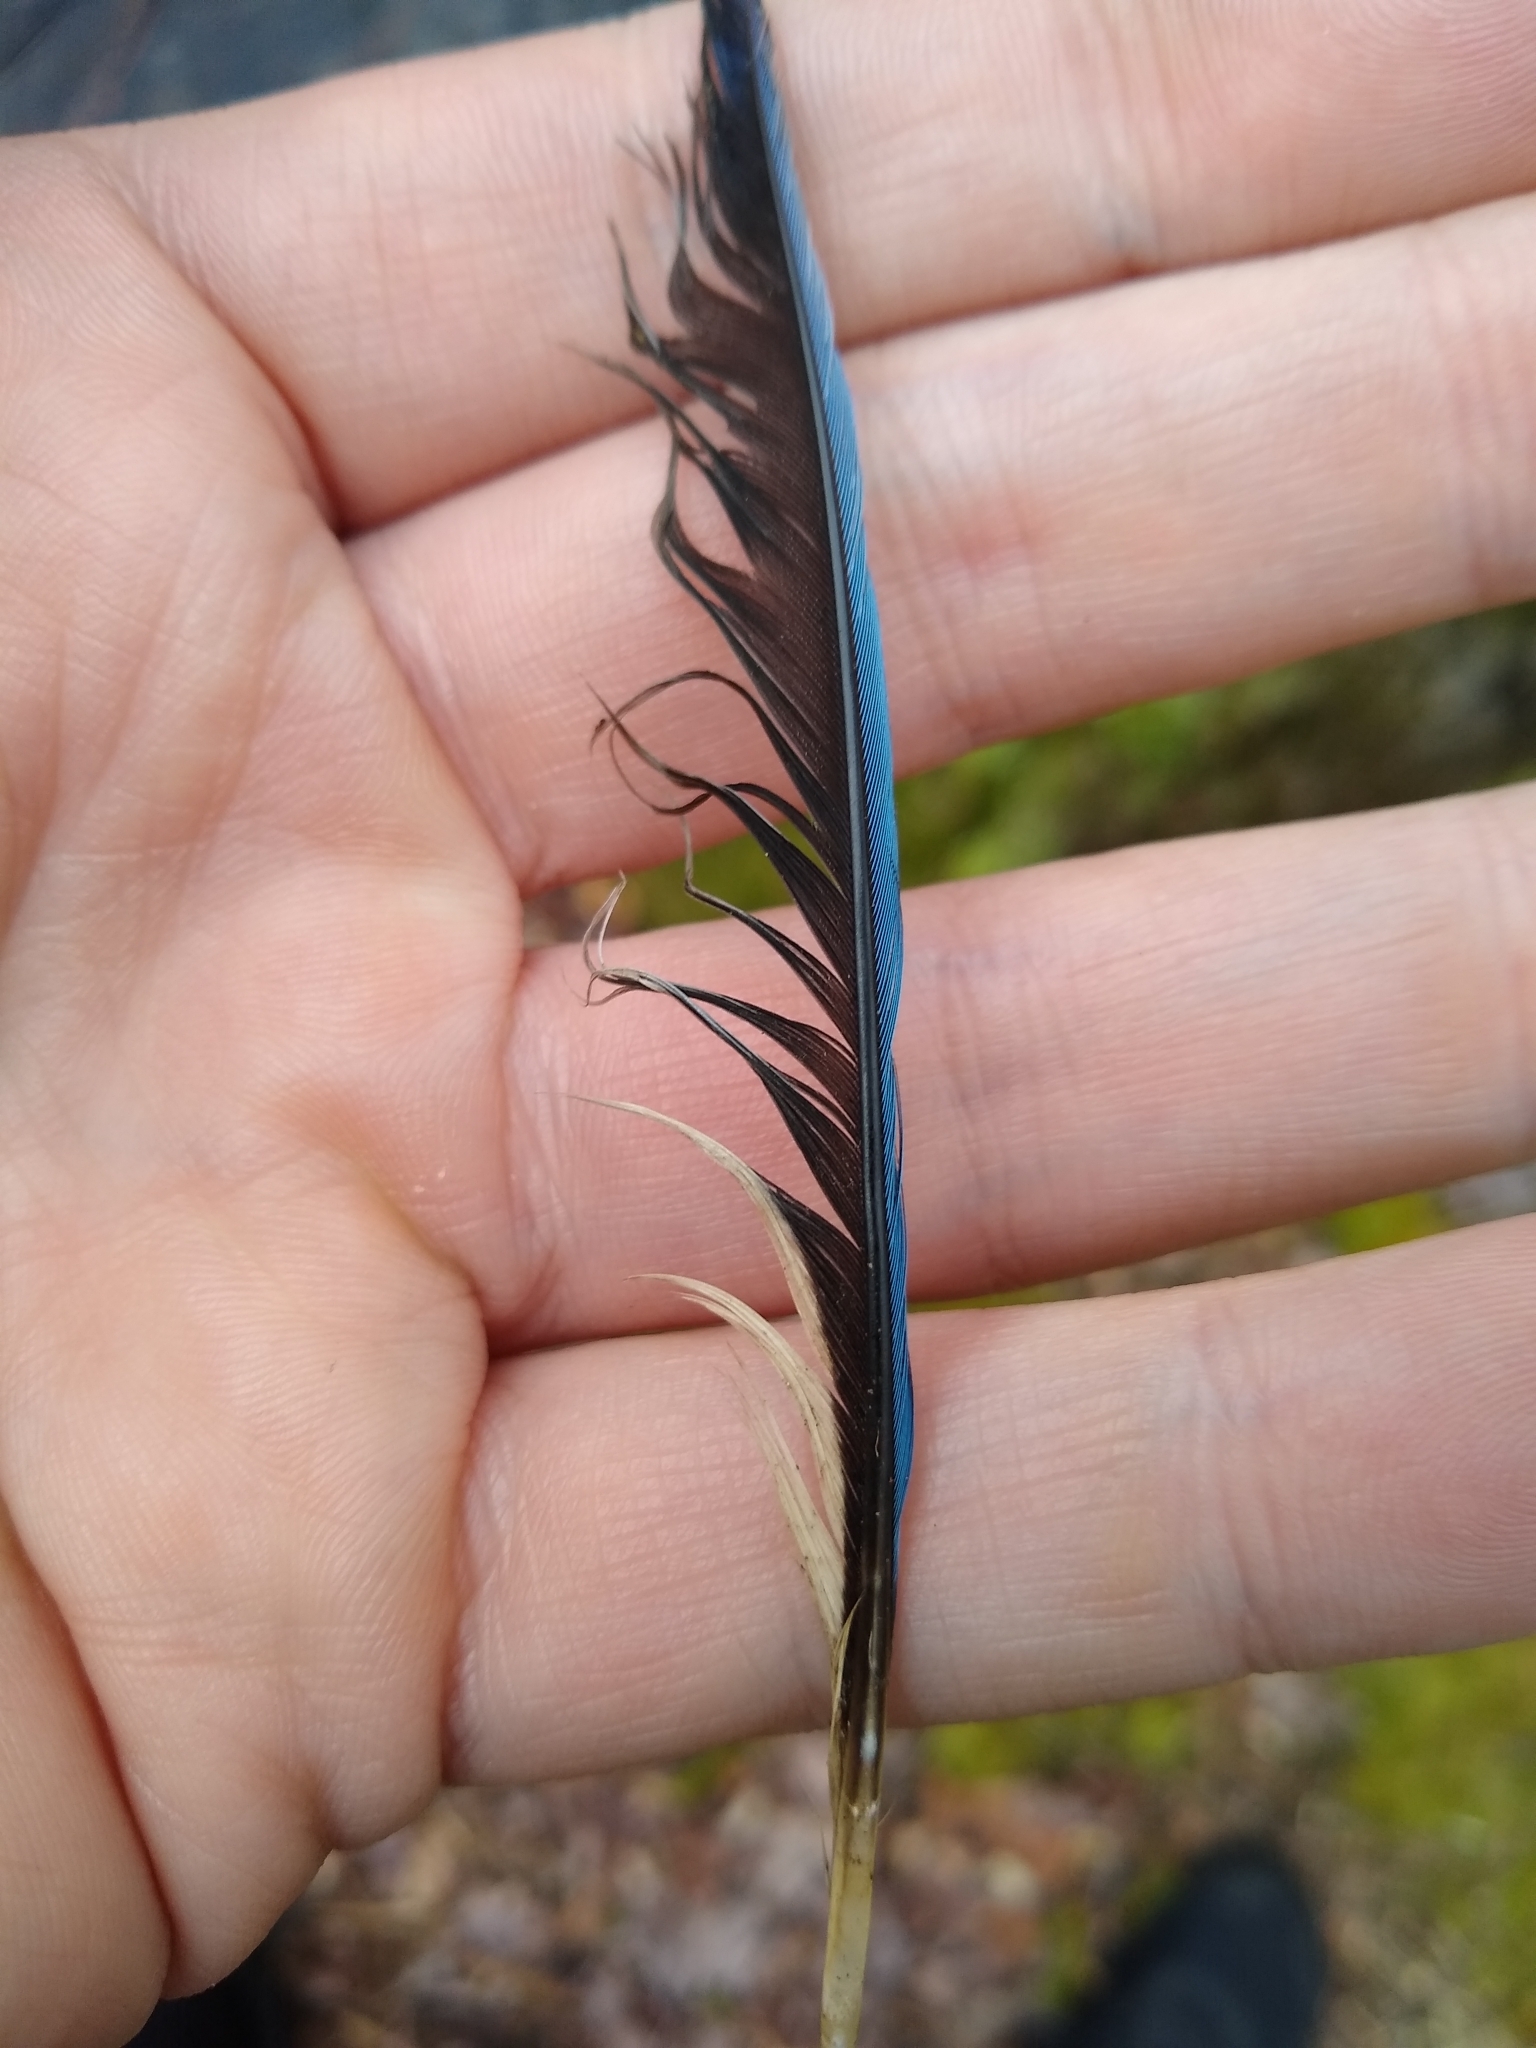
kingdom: Animalia
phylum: Chordata
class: Aves
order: Passeriformes
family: Corvidae
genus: Cyanocitta
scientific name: Cyanocitta cristata
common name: Blue jay
